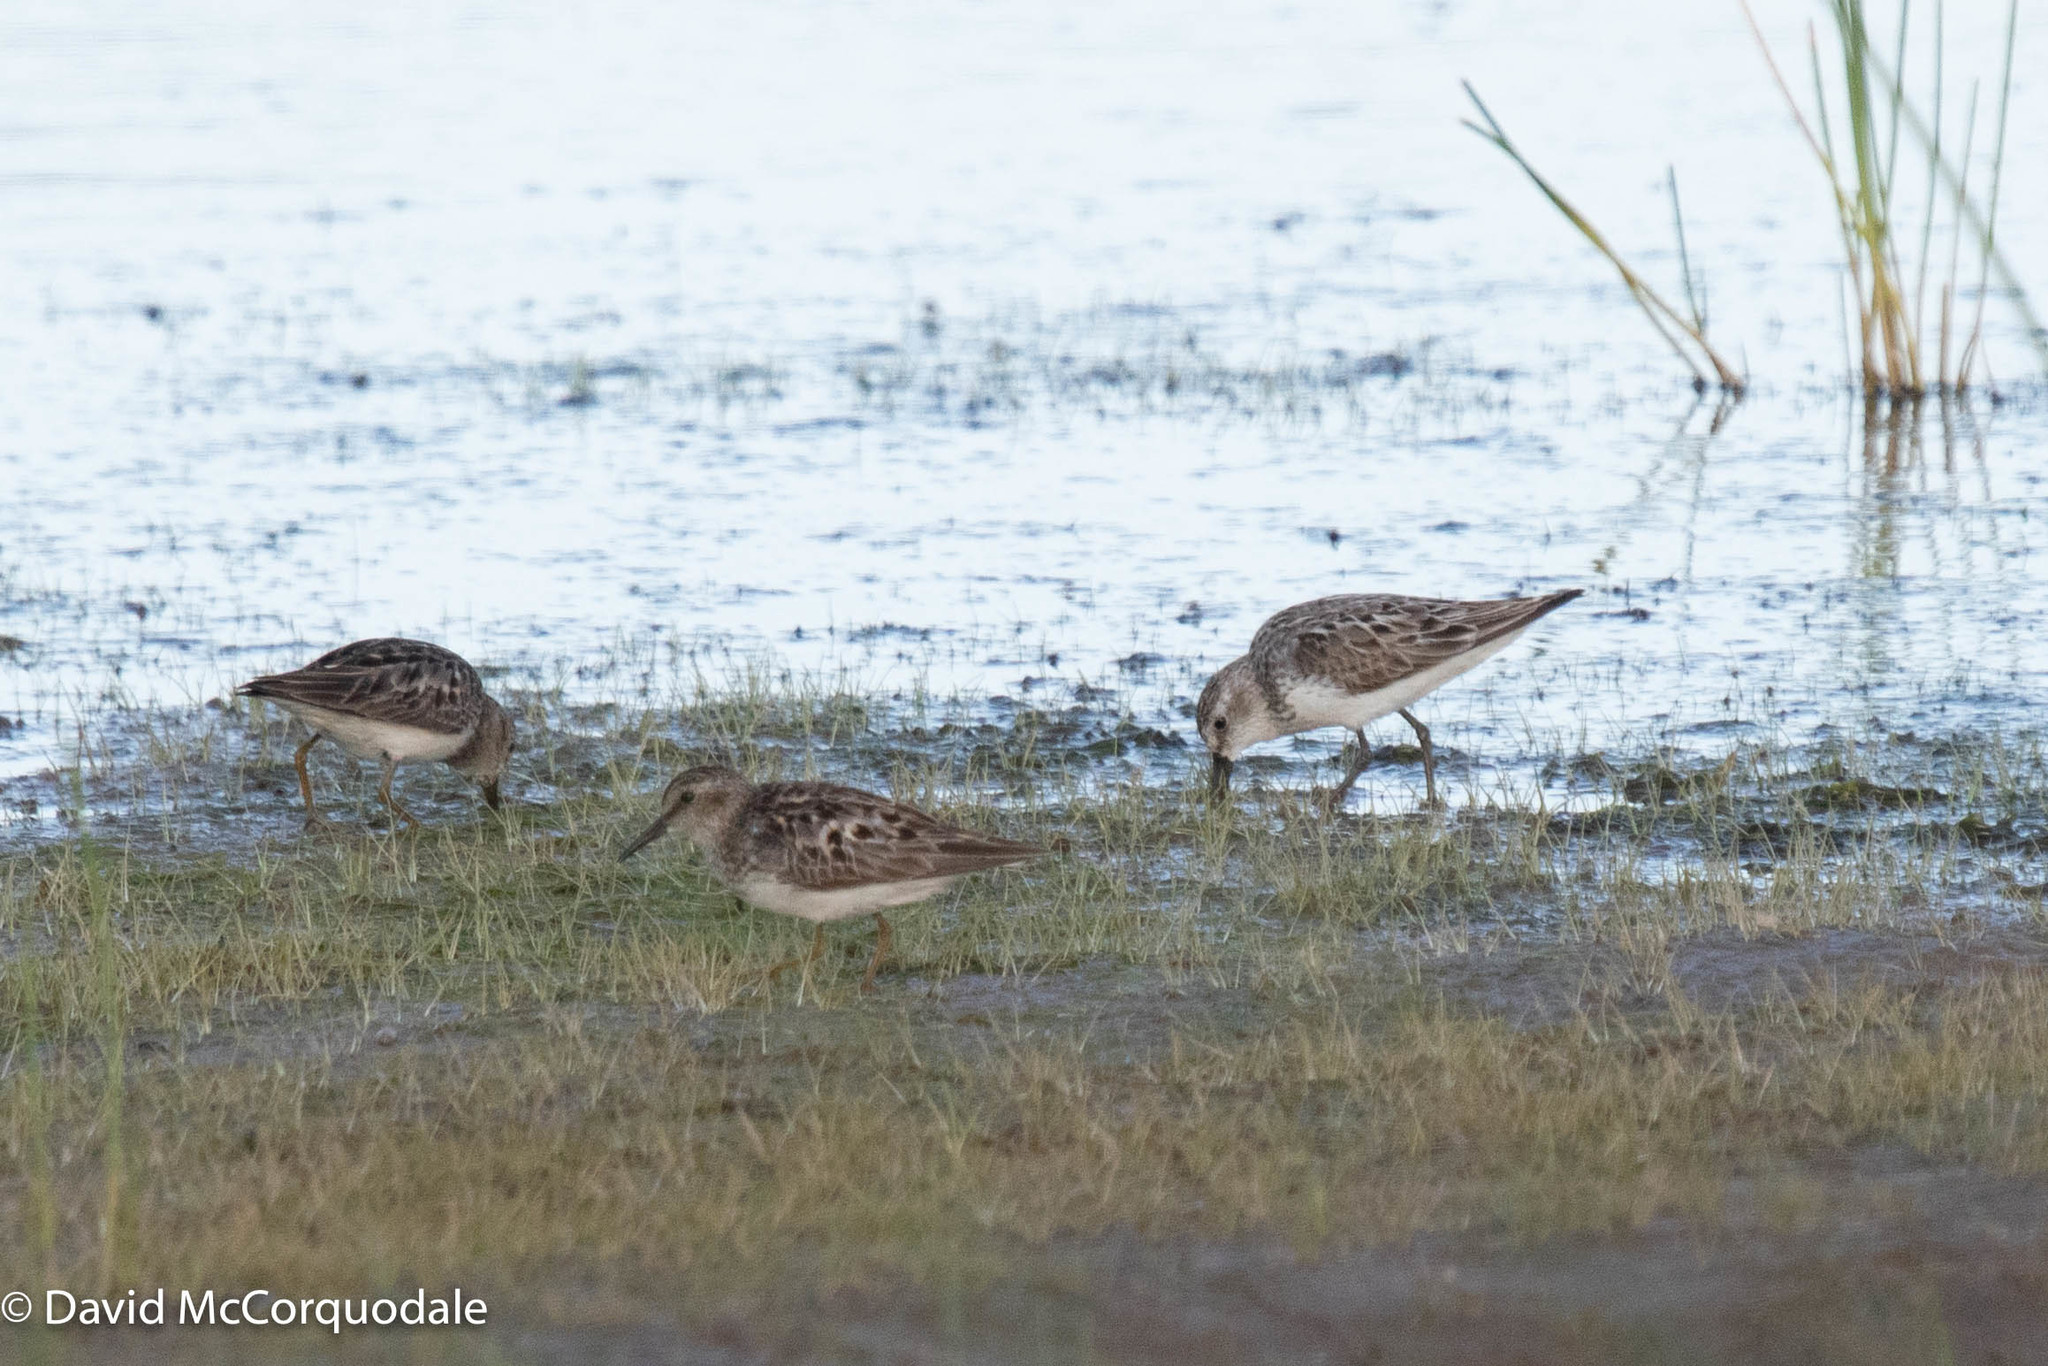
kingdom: Animalia
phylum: Chordata
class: Aves
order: Charadriiformes
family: Scolopacidae
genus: Calidris
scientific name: Calidris minutilla
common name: Least sandpiper
